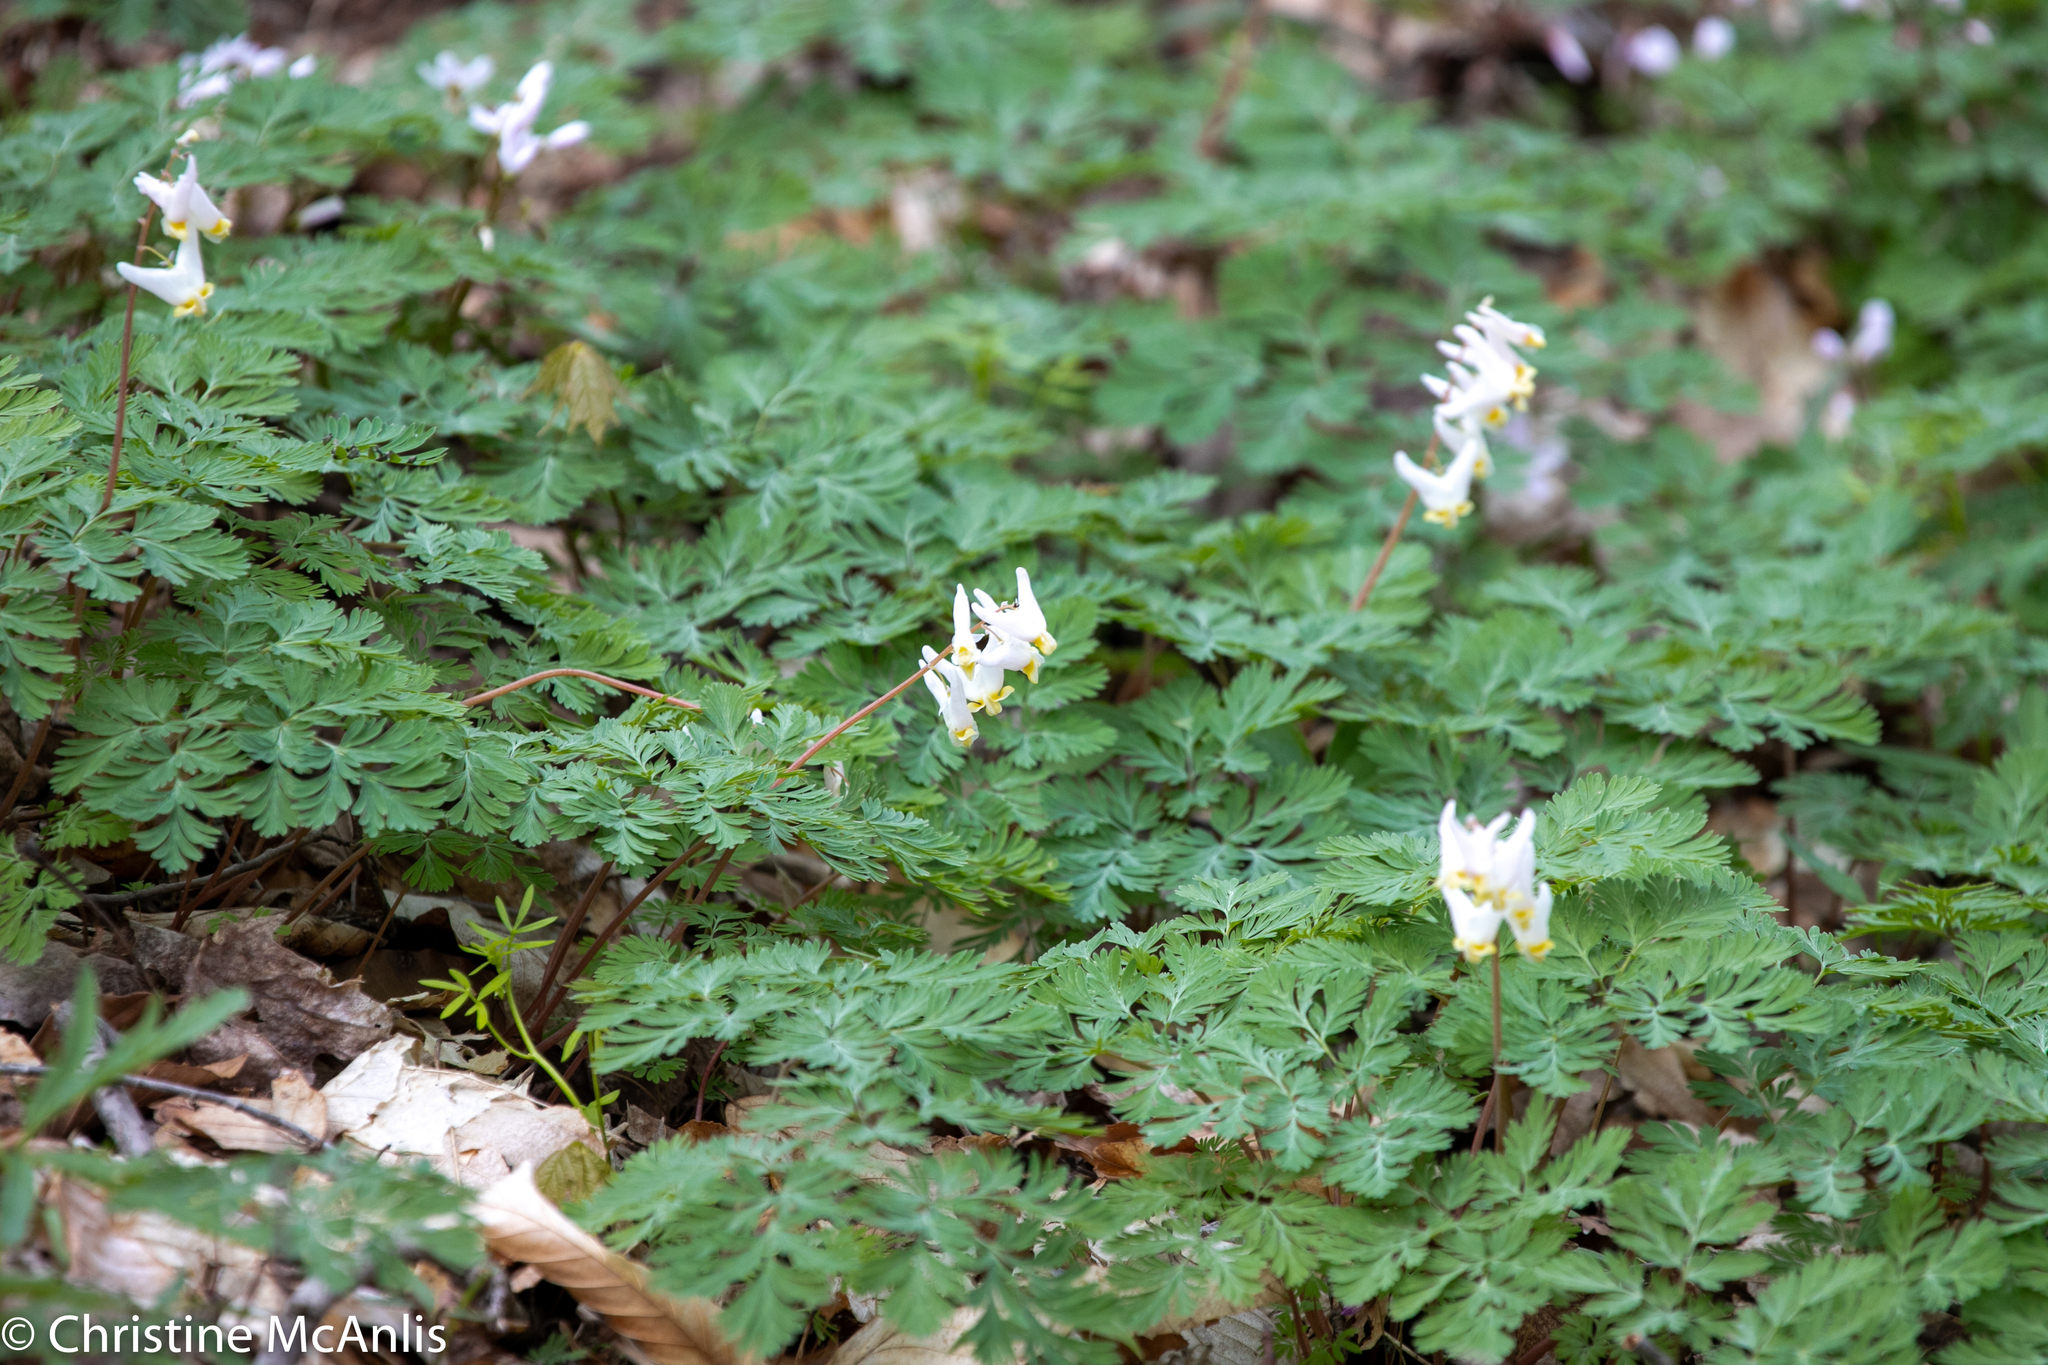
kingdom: Plantae
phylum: Tracheophyta
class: Magnoliopsida
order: Ranunculales
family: Papaveraceae
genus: Dicentra
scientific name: Dicentra cucullaria
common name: Dutchman's breeches
